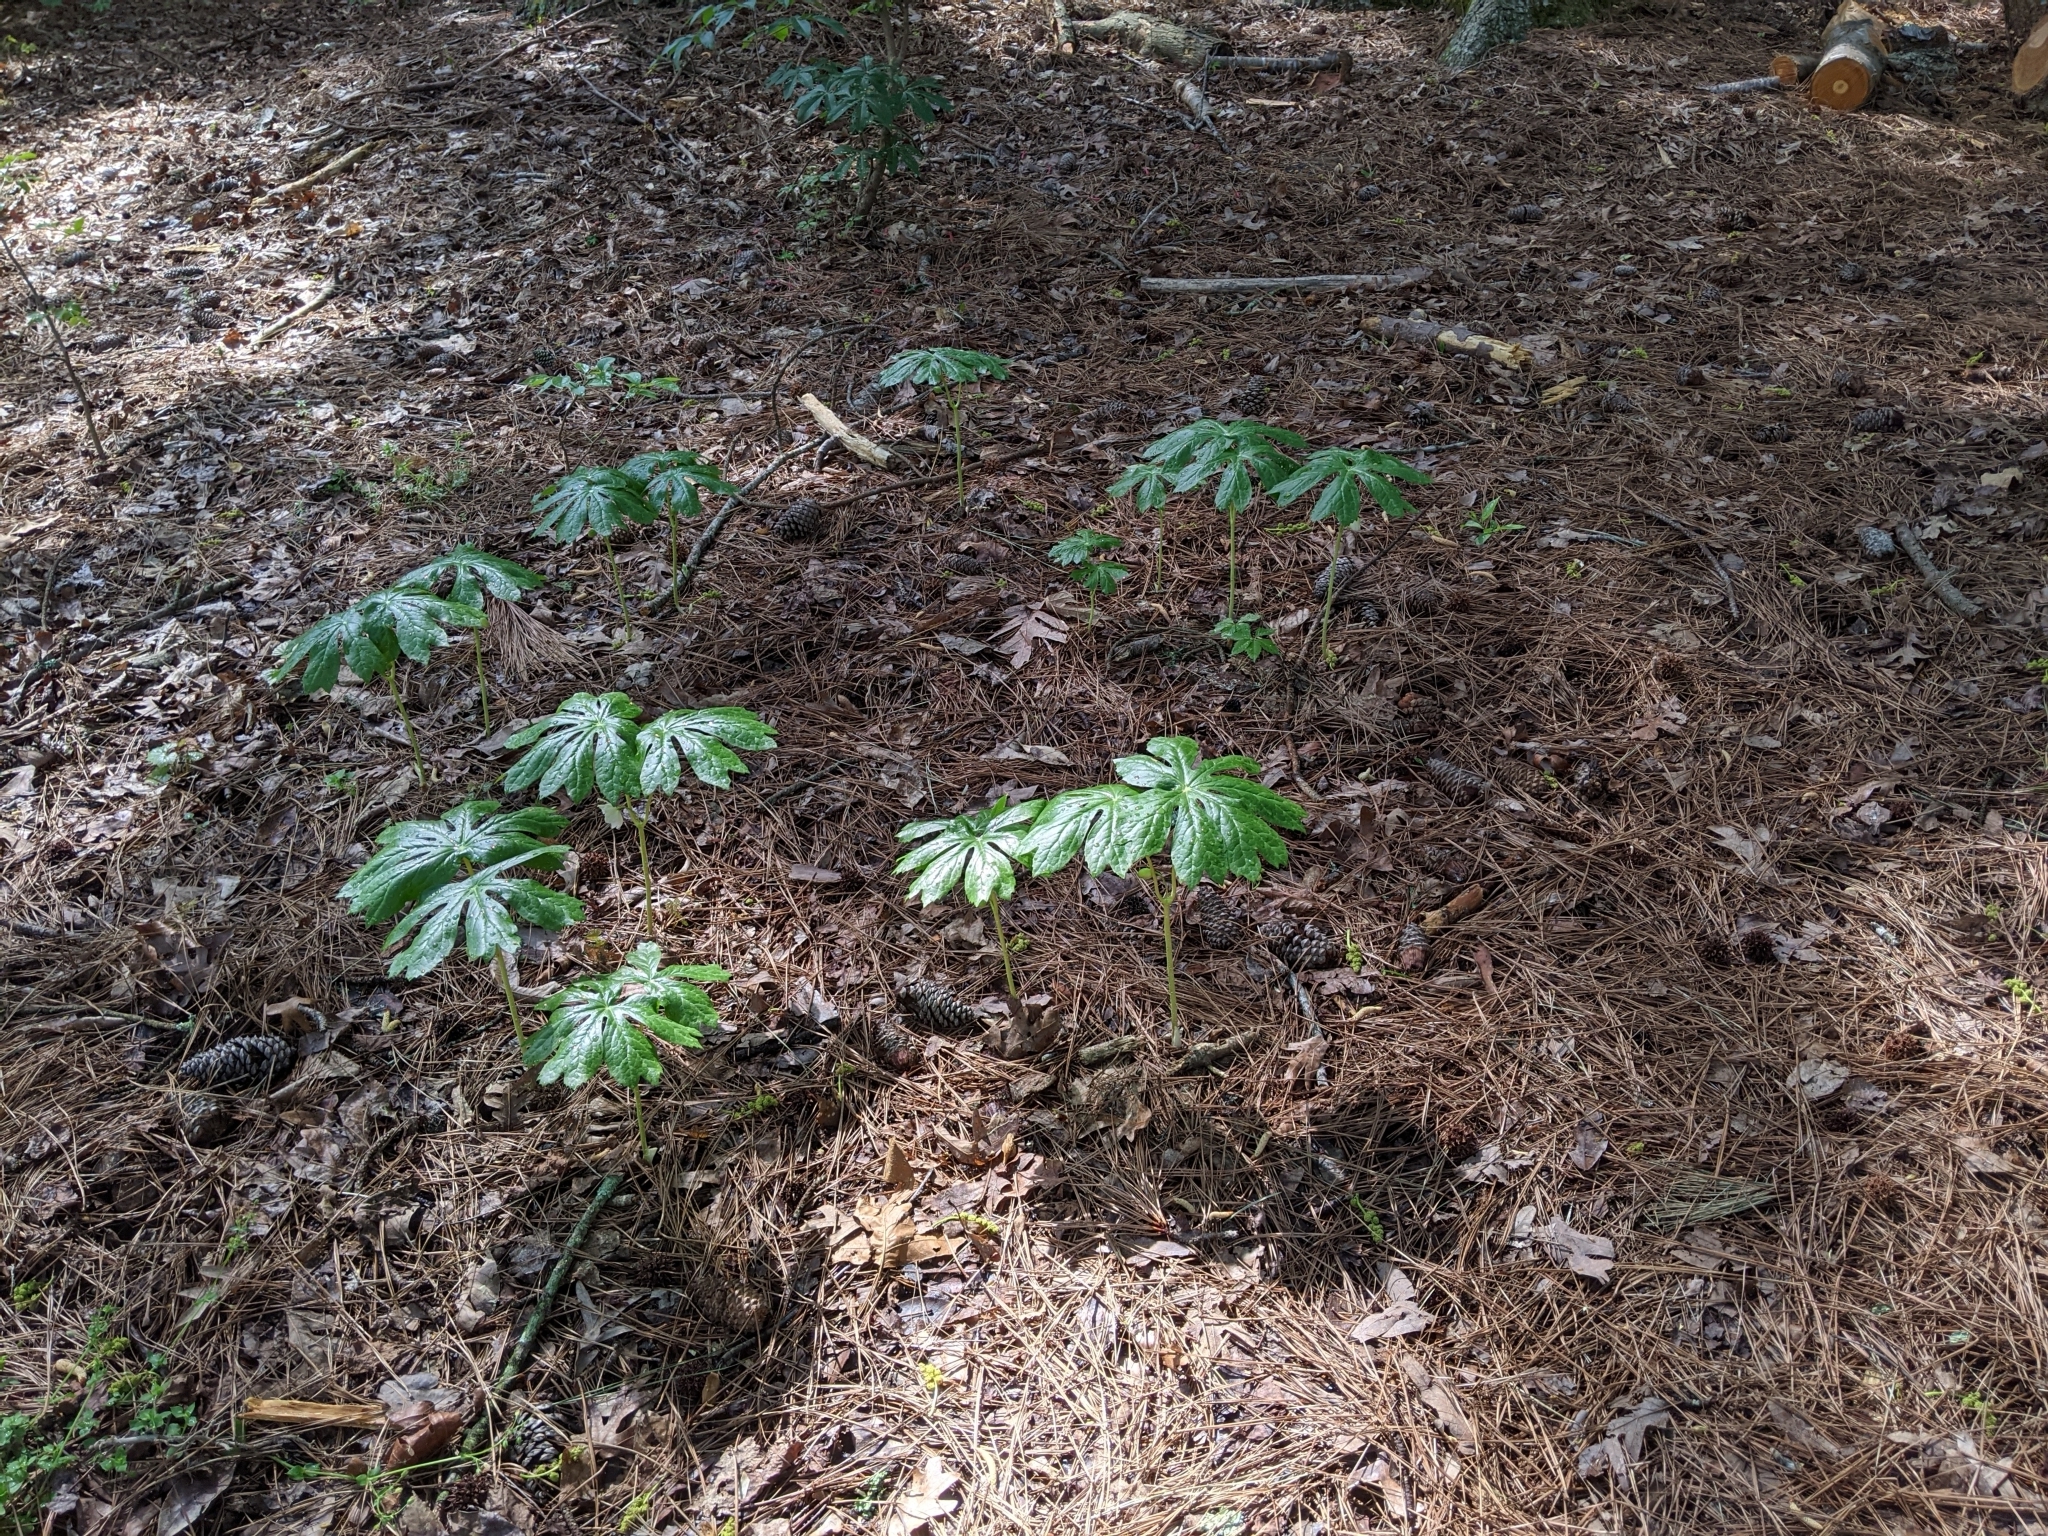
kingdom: Plantae
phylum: Tracheophyta
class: Magnoliopsida
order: Ranunculales
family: Berberidaceae
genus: Podophyllum
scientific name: Podophyllum peltatum
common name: Wild mandrake
